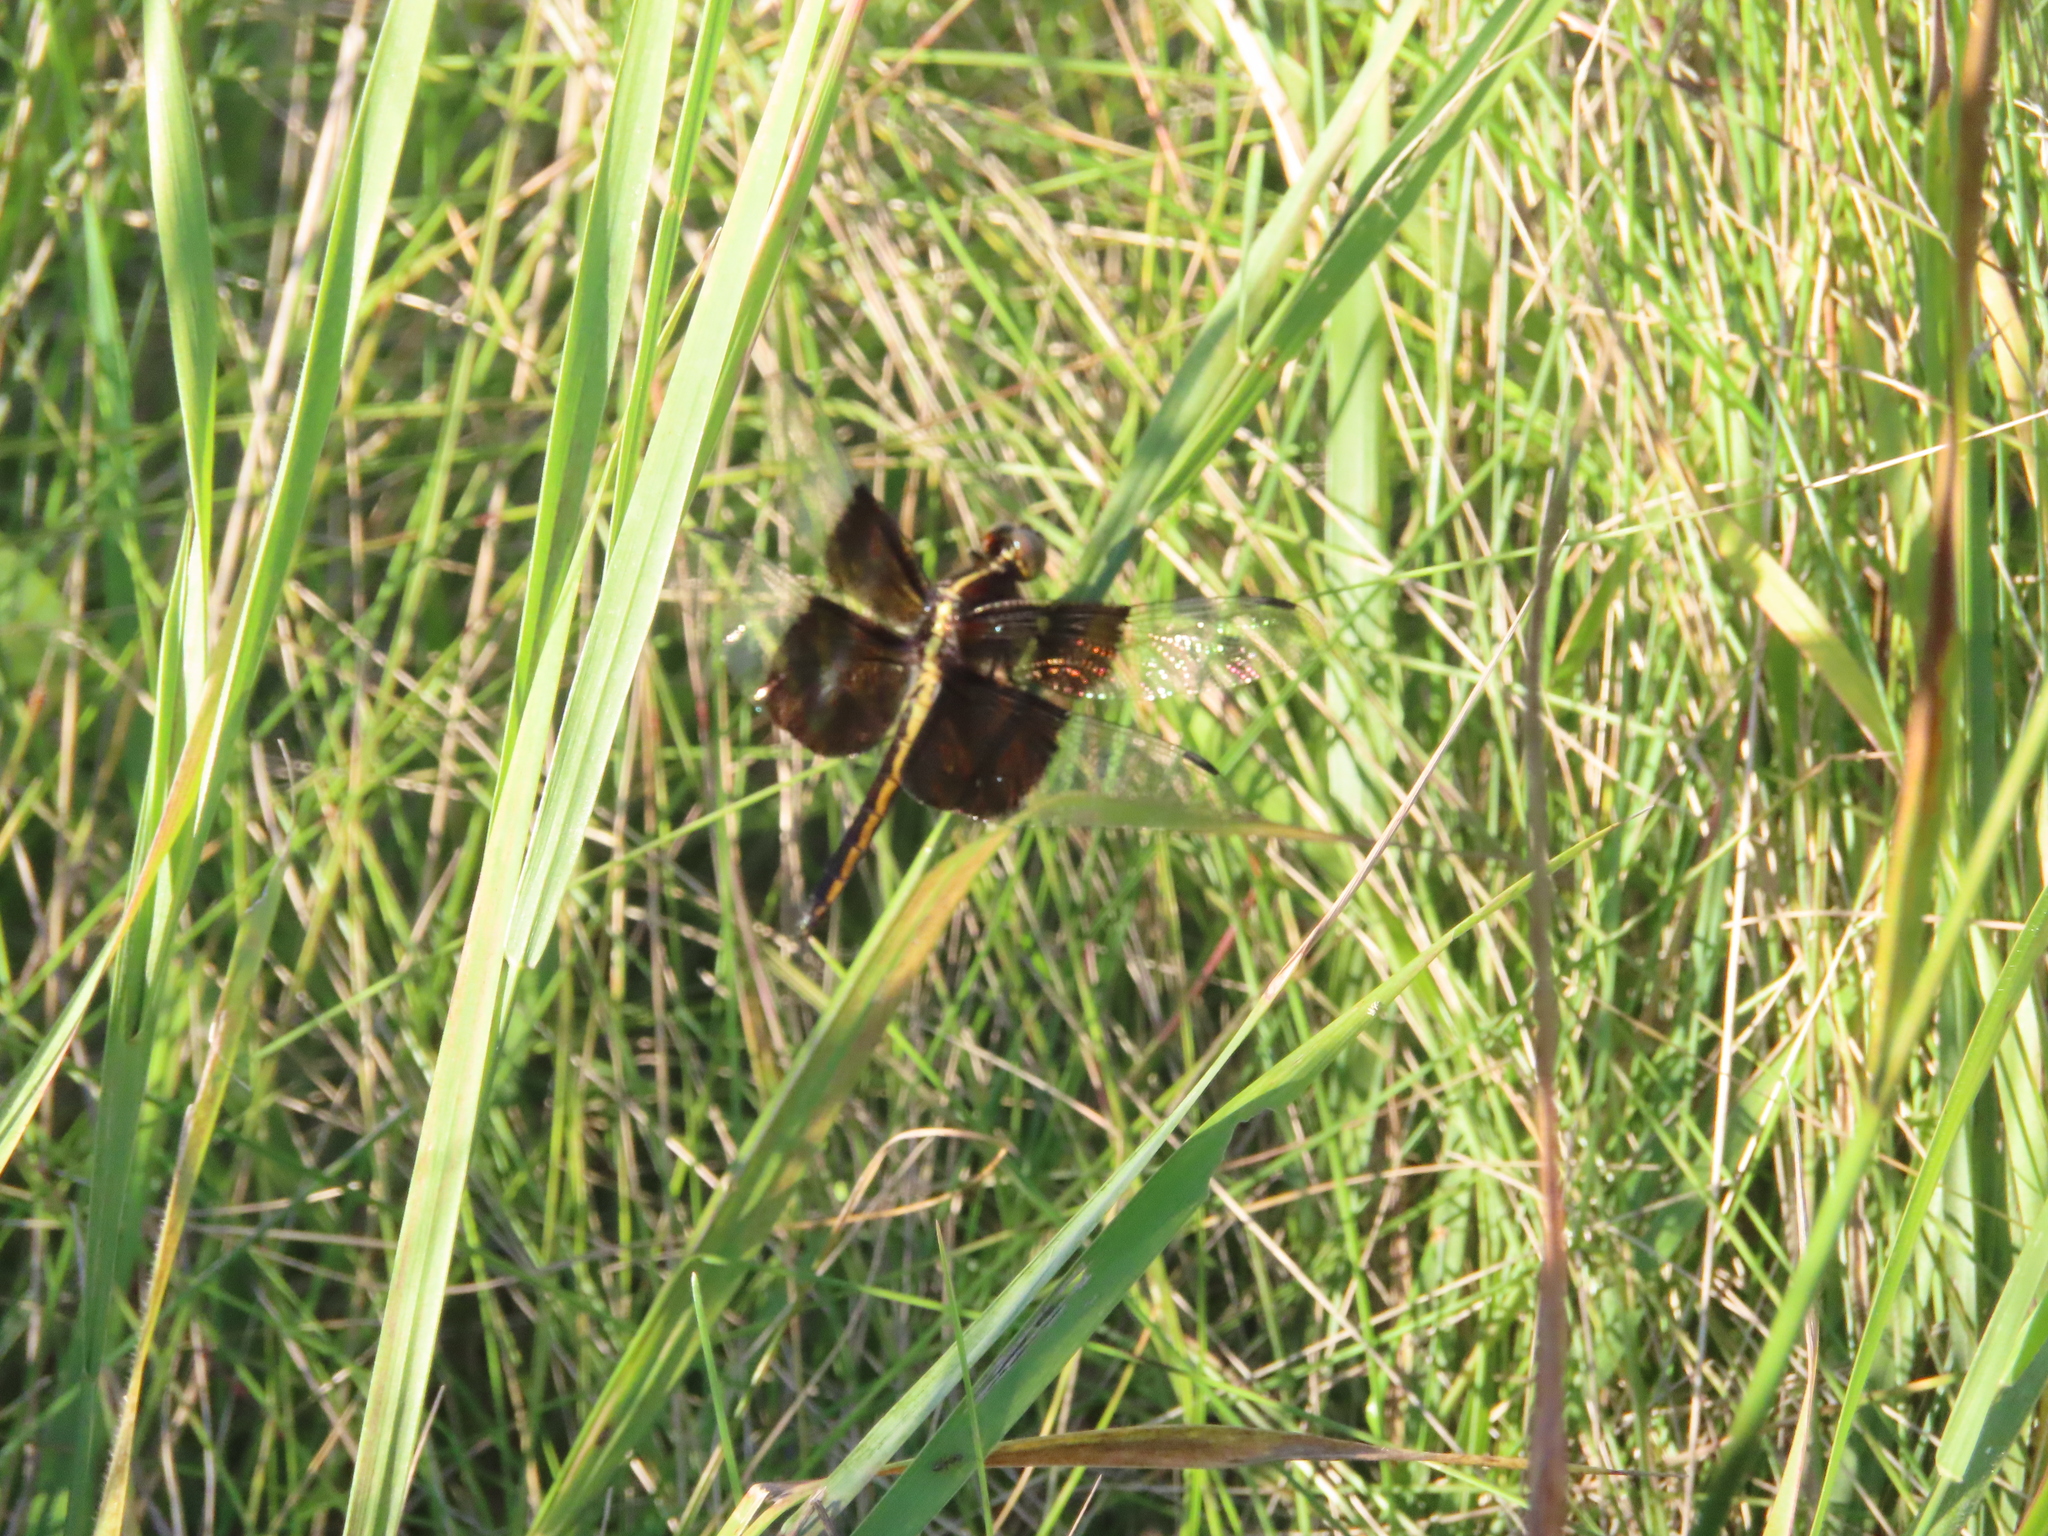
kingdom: Animalia
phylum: Arthropoda
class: Insecta
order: Odonata
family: Libellulidae
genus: Libellula
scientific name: Libellula luctuosa
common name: Widow skimmer
